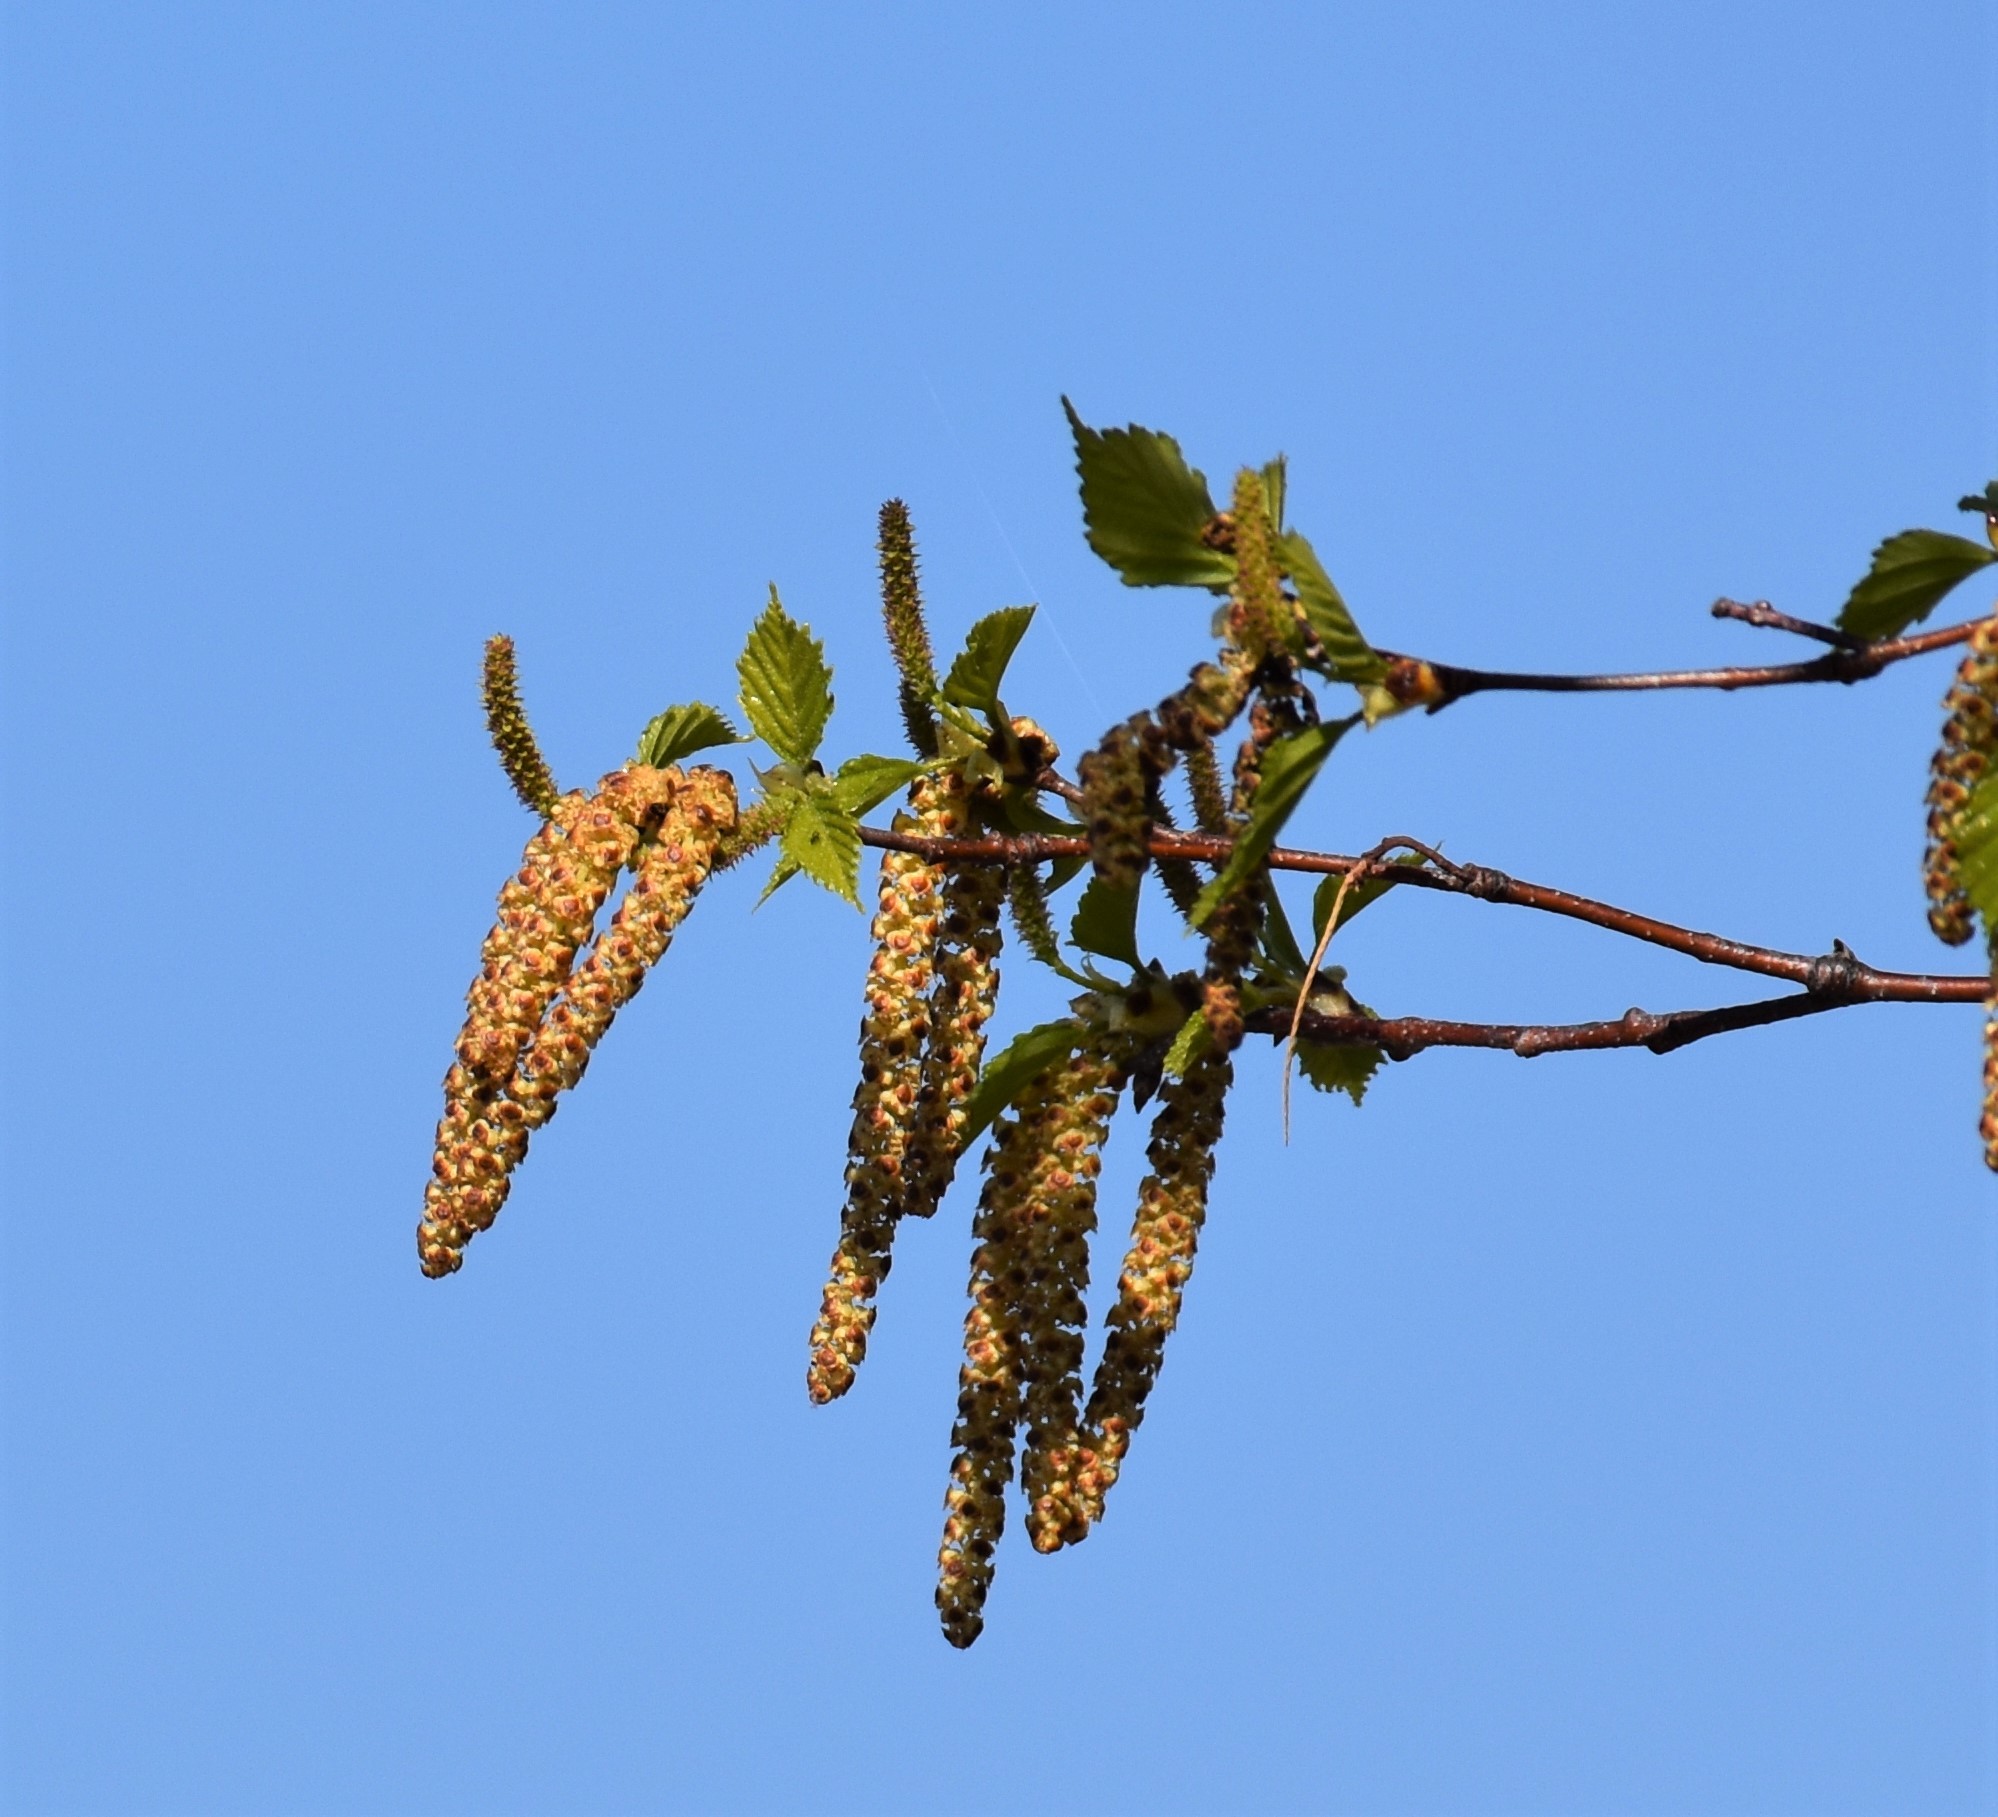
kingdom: Plantae
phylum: Tracheophyta
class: Magnoliopsida
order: Fagales
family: Betulaceae
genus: Betula
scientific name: Betula papyrifera
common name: Paper birch
